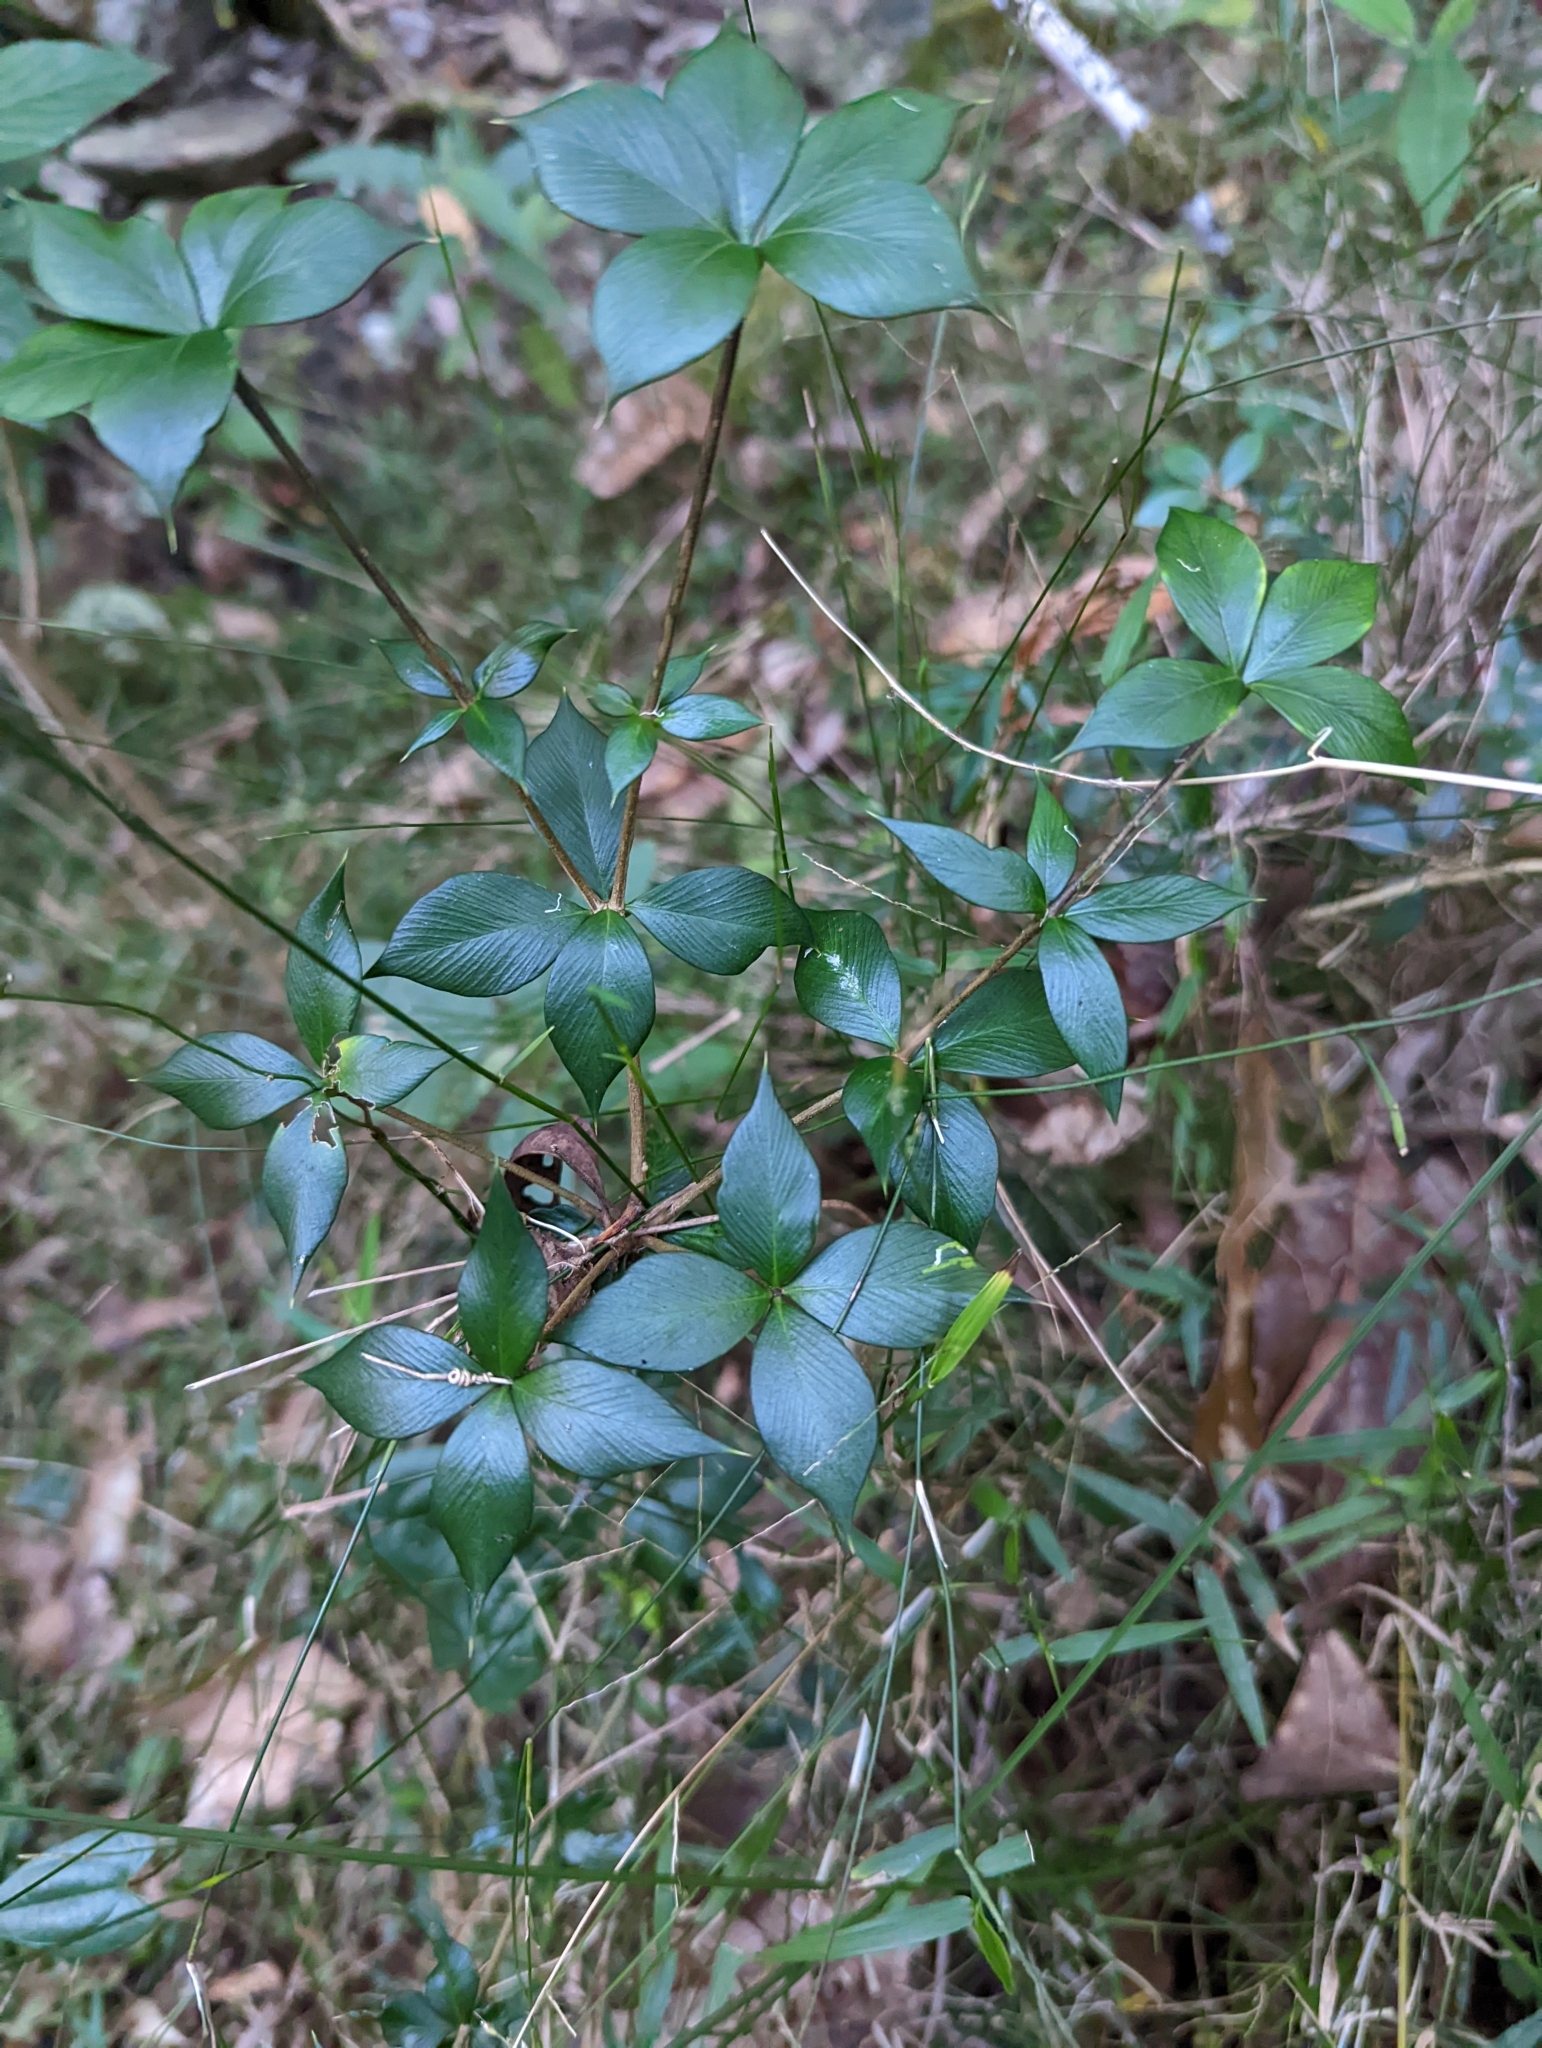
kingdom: Plantae
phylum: Tracheophyta
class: Magnoliopsida
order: Gentianales
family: Apocynaceae
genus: Alyxia
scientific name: Alyxia ruscifolia
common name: Chainfruit
